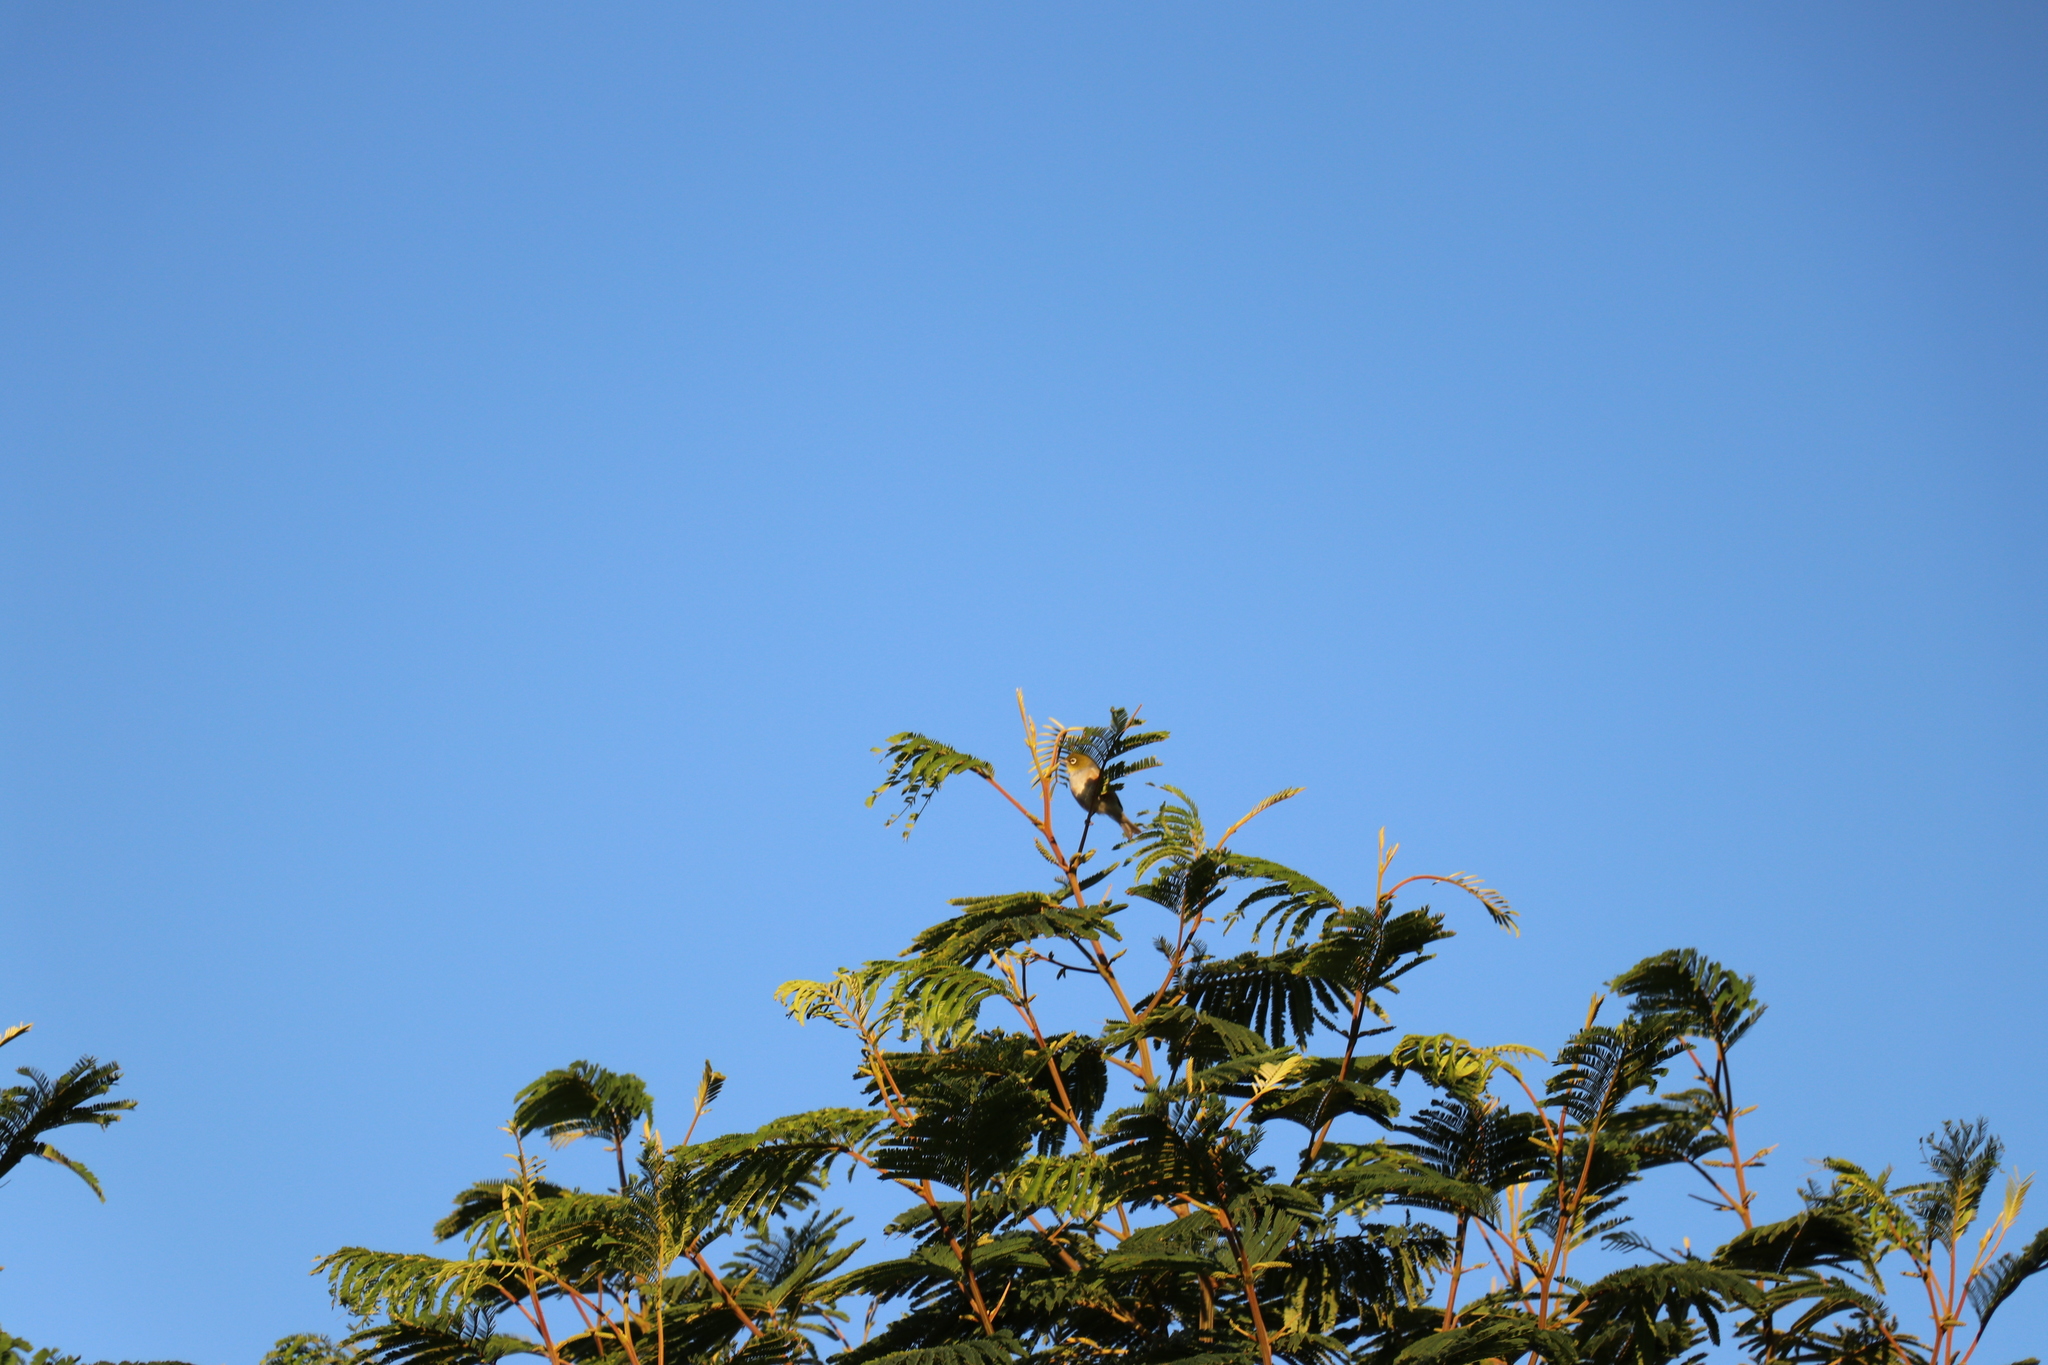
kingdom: Animalia
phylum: Chordata
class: Aves
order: Passeriformes
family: Zosteropidae
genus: Zosterops
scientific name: Zosterops lateralis
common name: Silvereye
